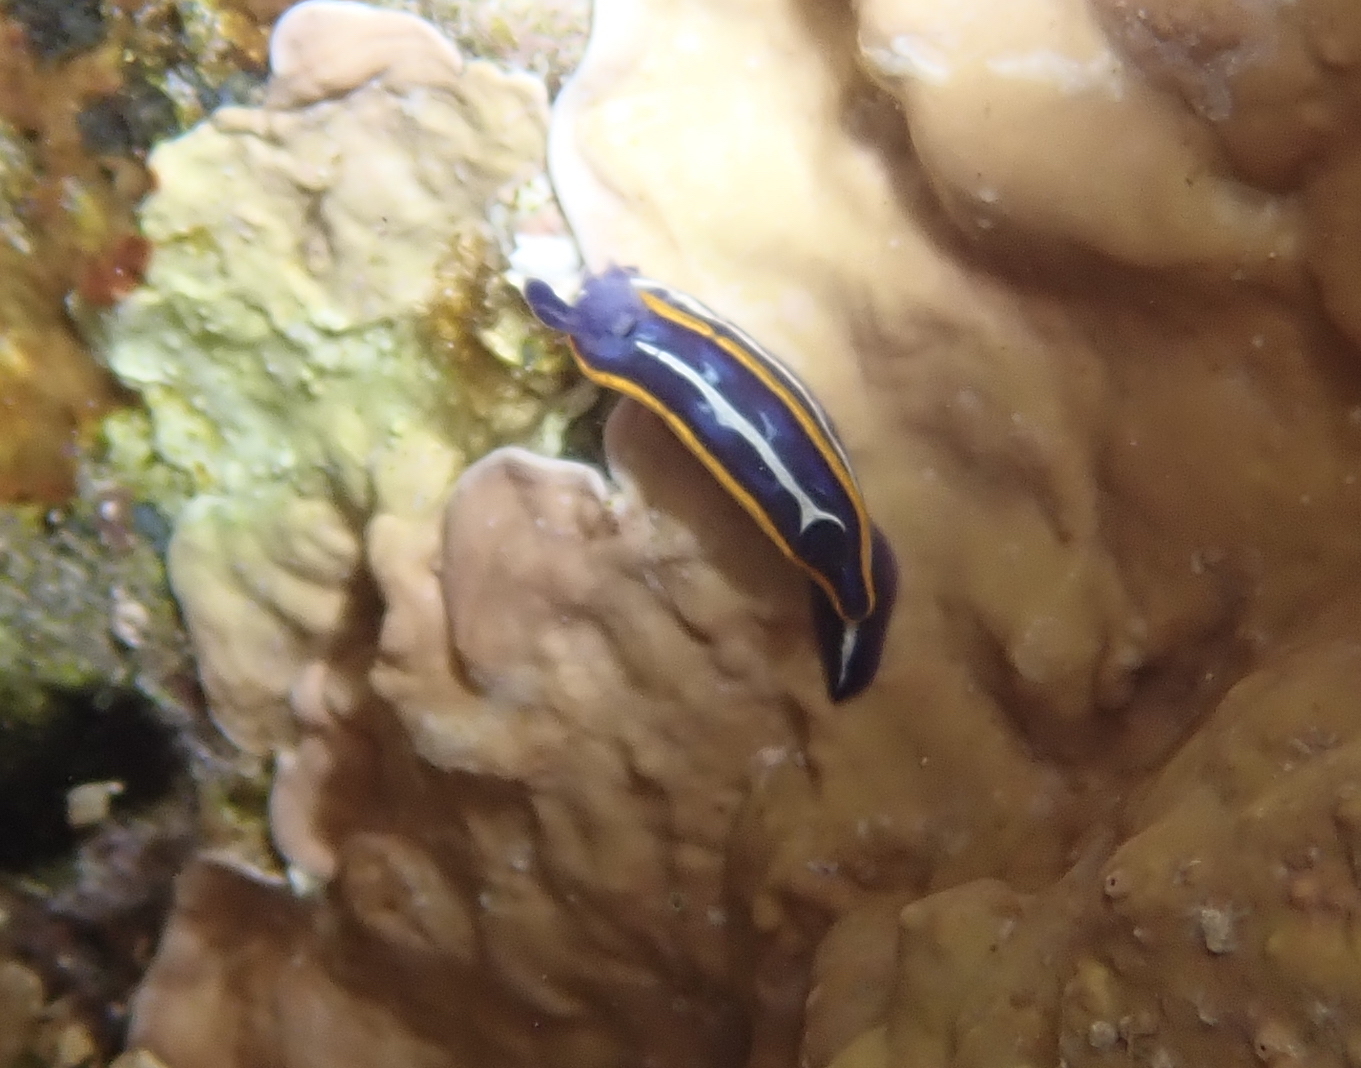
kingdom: Animalia
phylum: Mollusca
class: Gastropoda
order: Nudibranchia
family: Chromodorididae
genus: Felimare
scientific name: Felimare fontandraui
